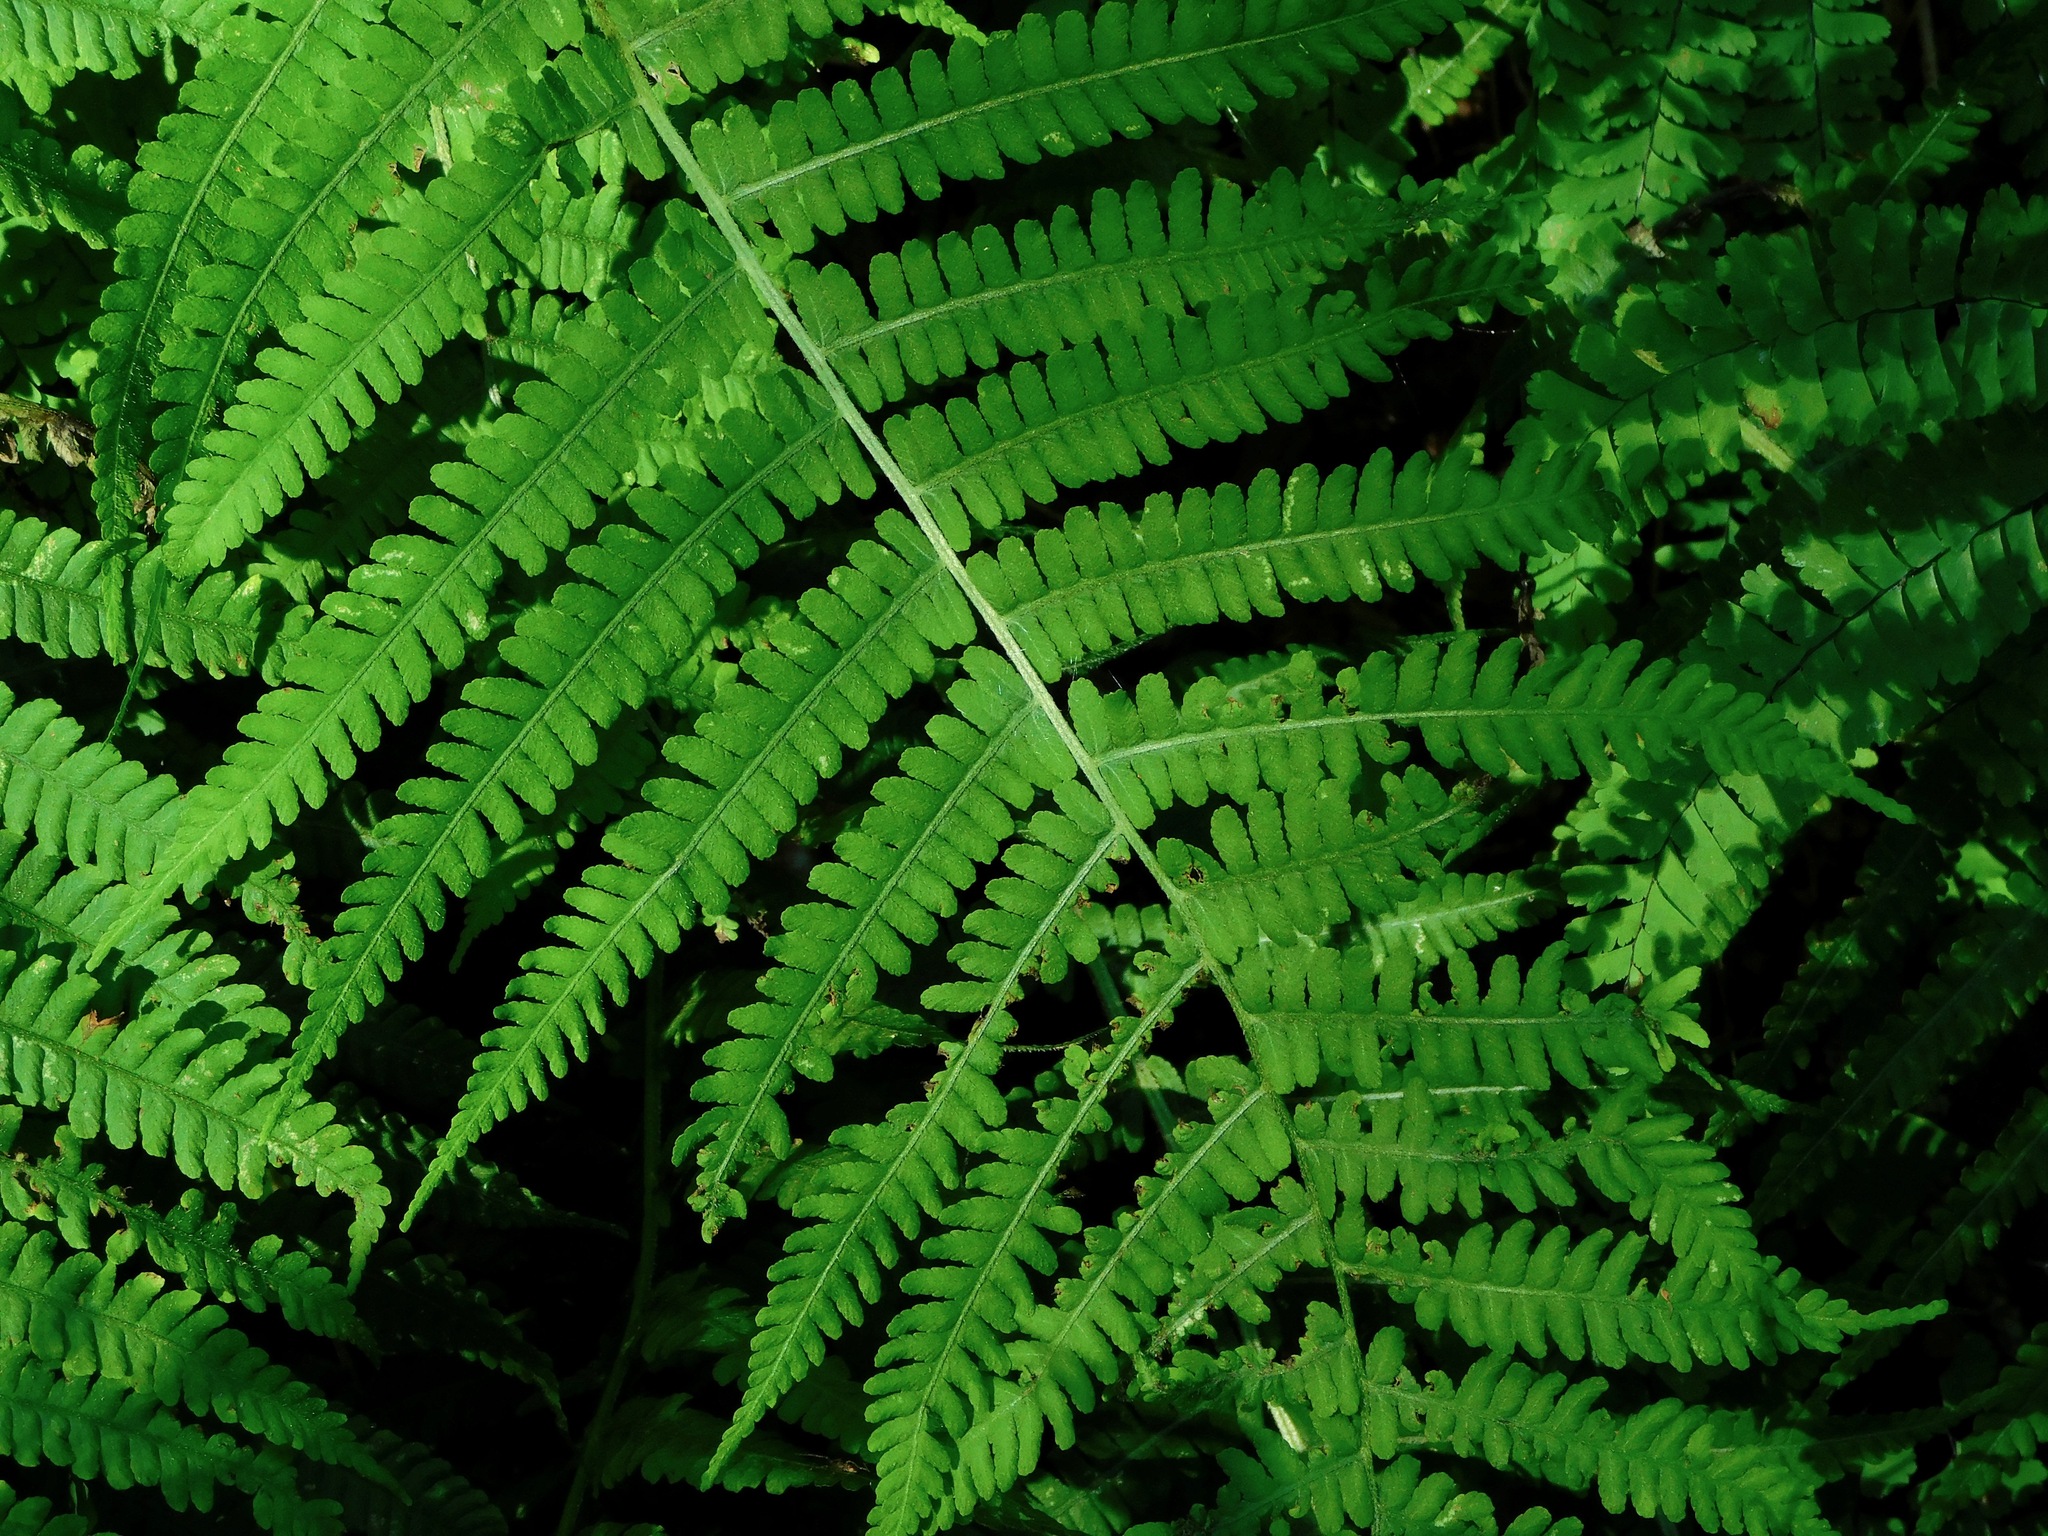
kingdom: Plantae
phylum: Tracheophyta
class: Polypodiopsida
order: Polypodiales
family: Athyriaceae
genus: Deparia
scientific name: Deparia acrostichoides
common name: Silver false spleenwort
